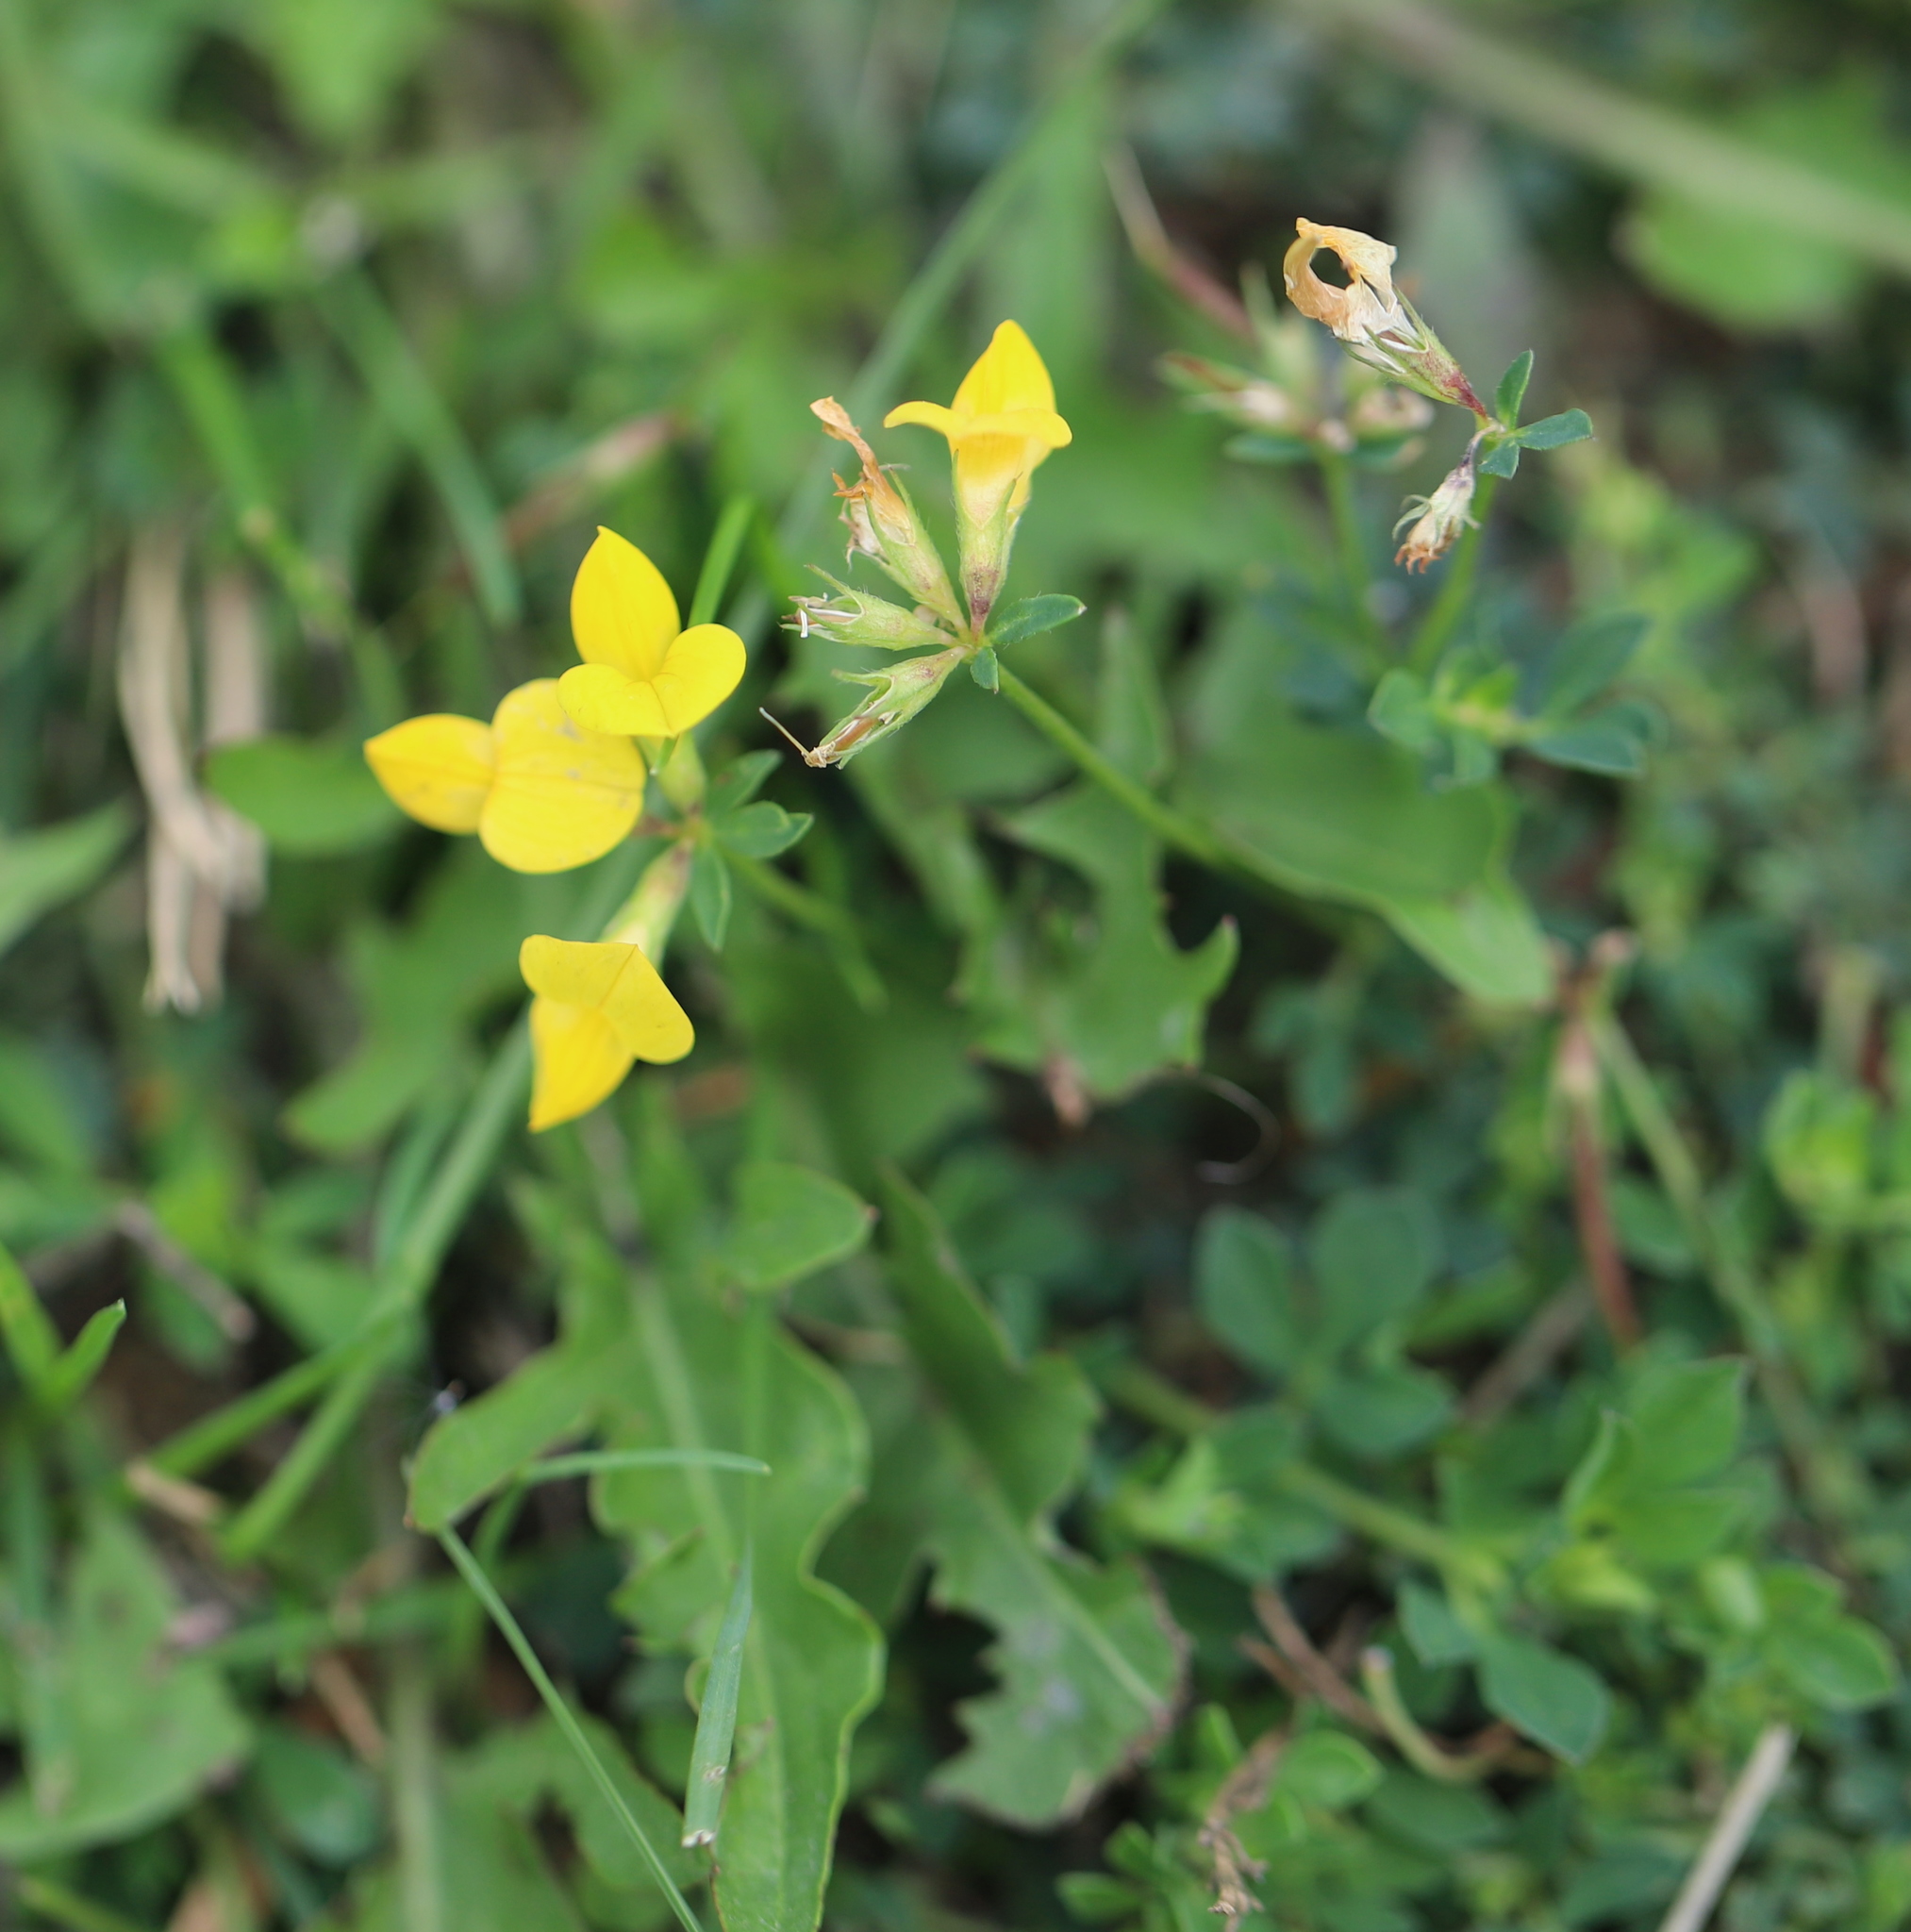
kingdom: Plantae
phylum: Tracheophyta
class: Magnoliopsida
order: Fabales
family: Fabaceae
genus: Lotus
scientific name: Lotus corniculatus
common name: Common bird's-foot-trefoil
